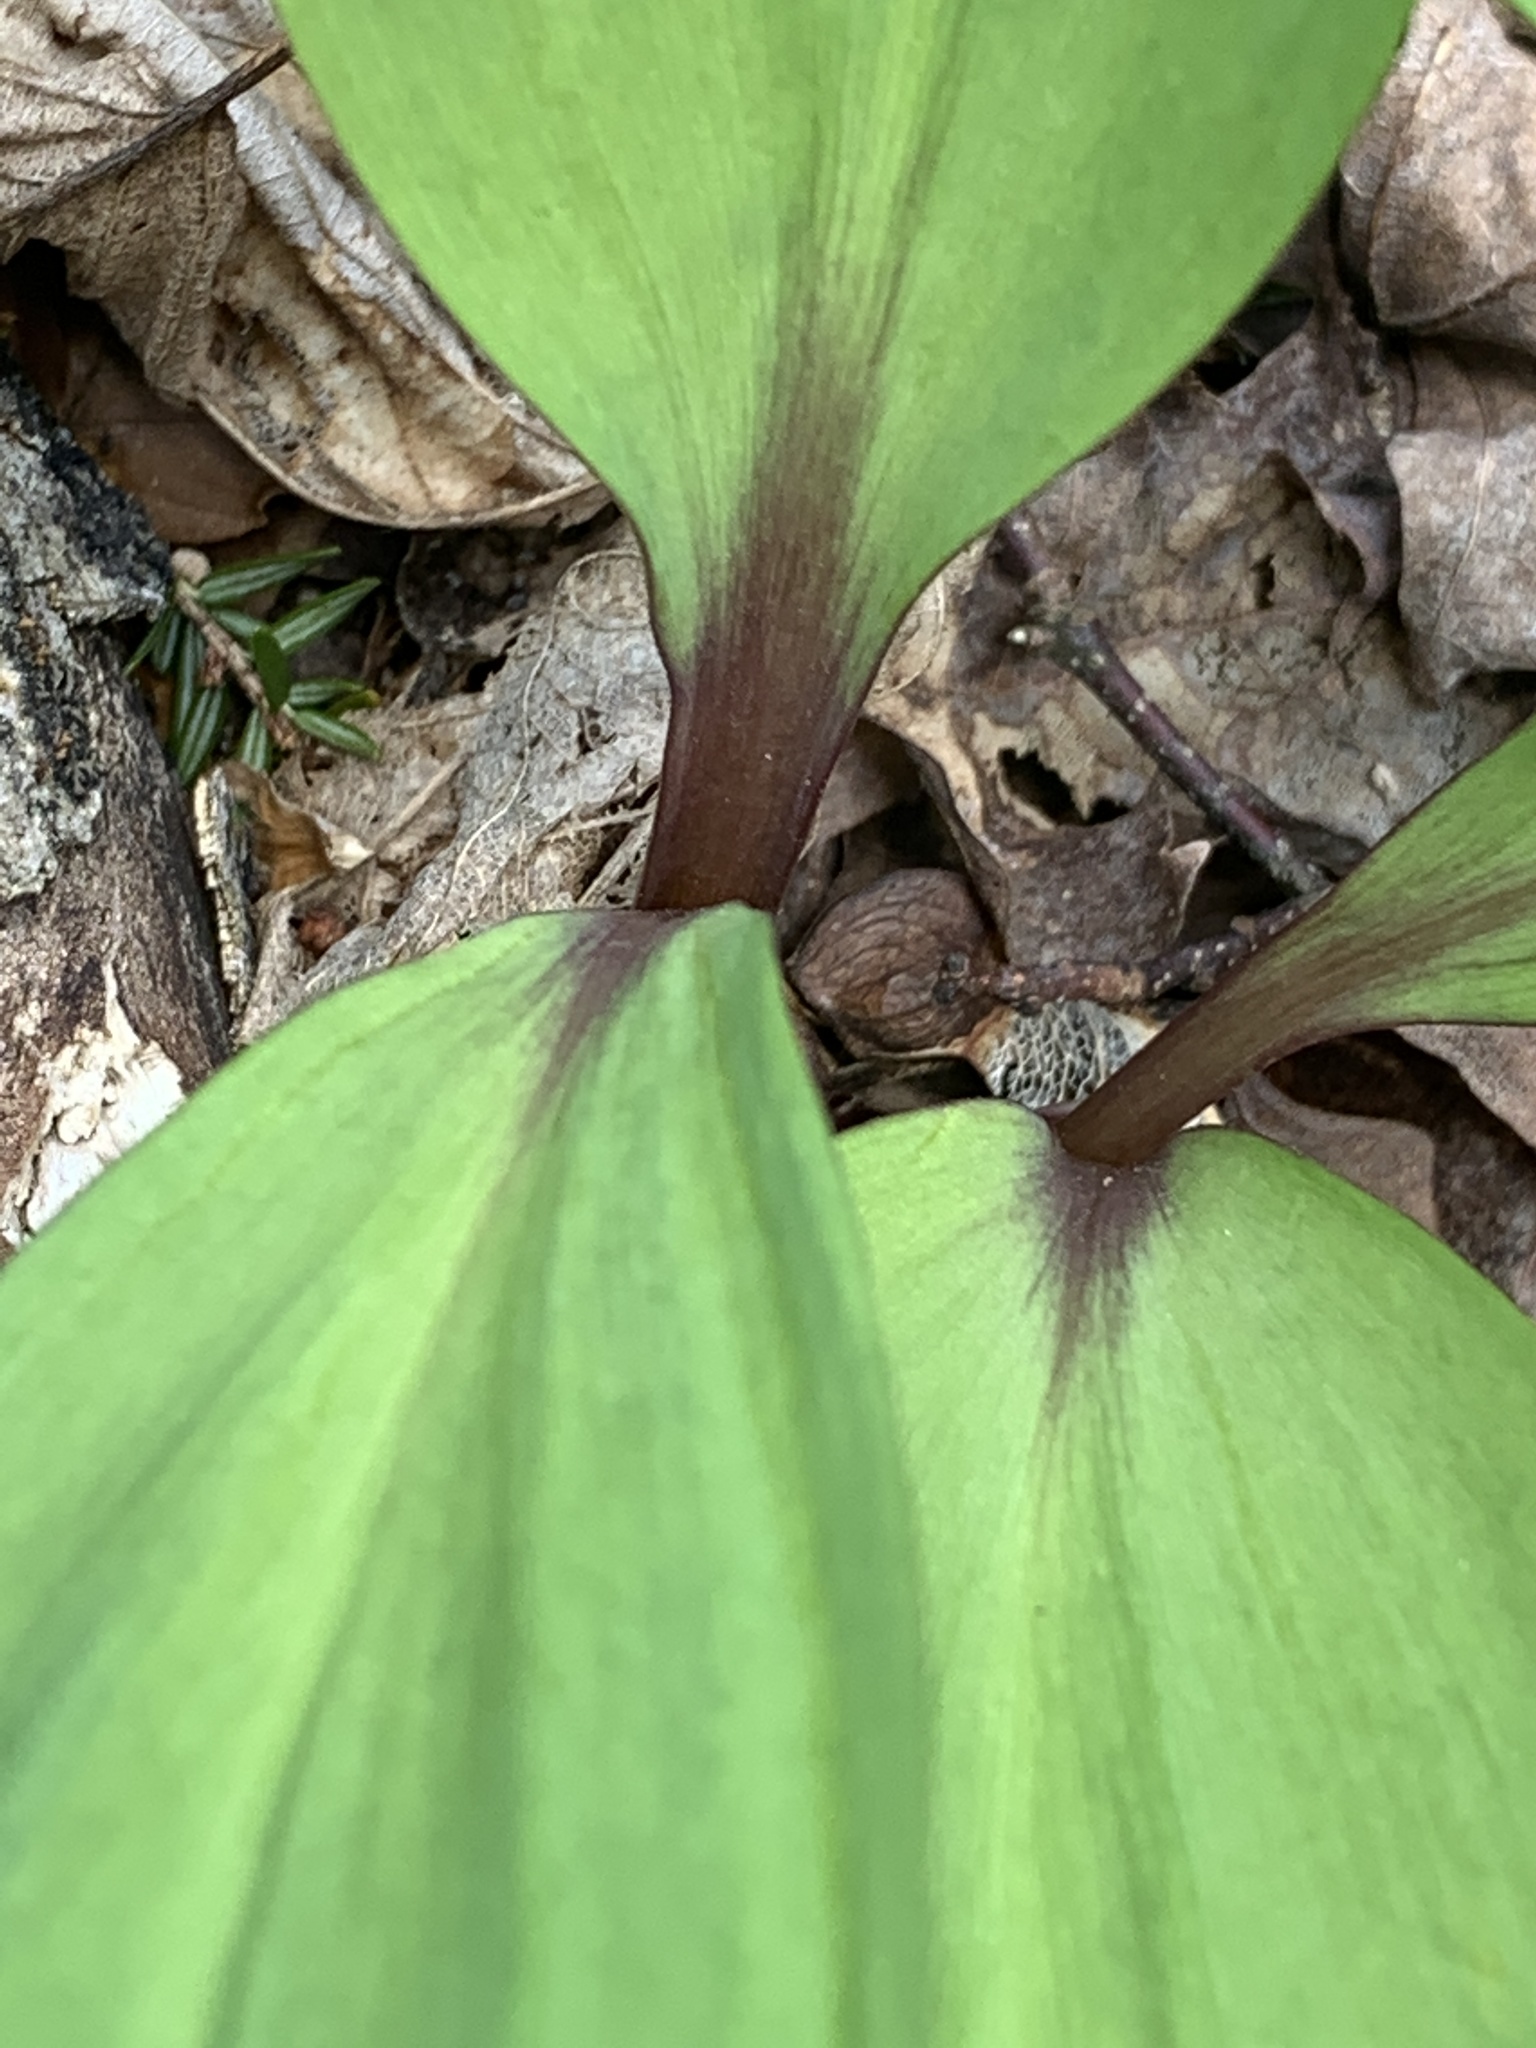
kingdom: Plantae
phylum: Tracheophyta
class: Liliopsida
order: Asparagales
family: Amaryllidaceae
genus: Allium
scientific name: Allium tricoccum
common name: Ramp
